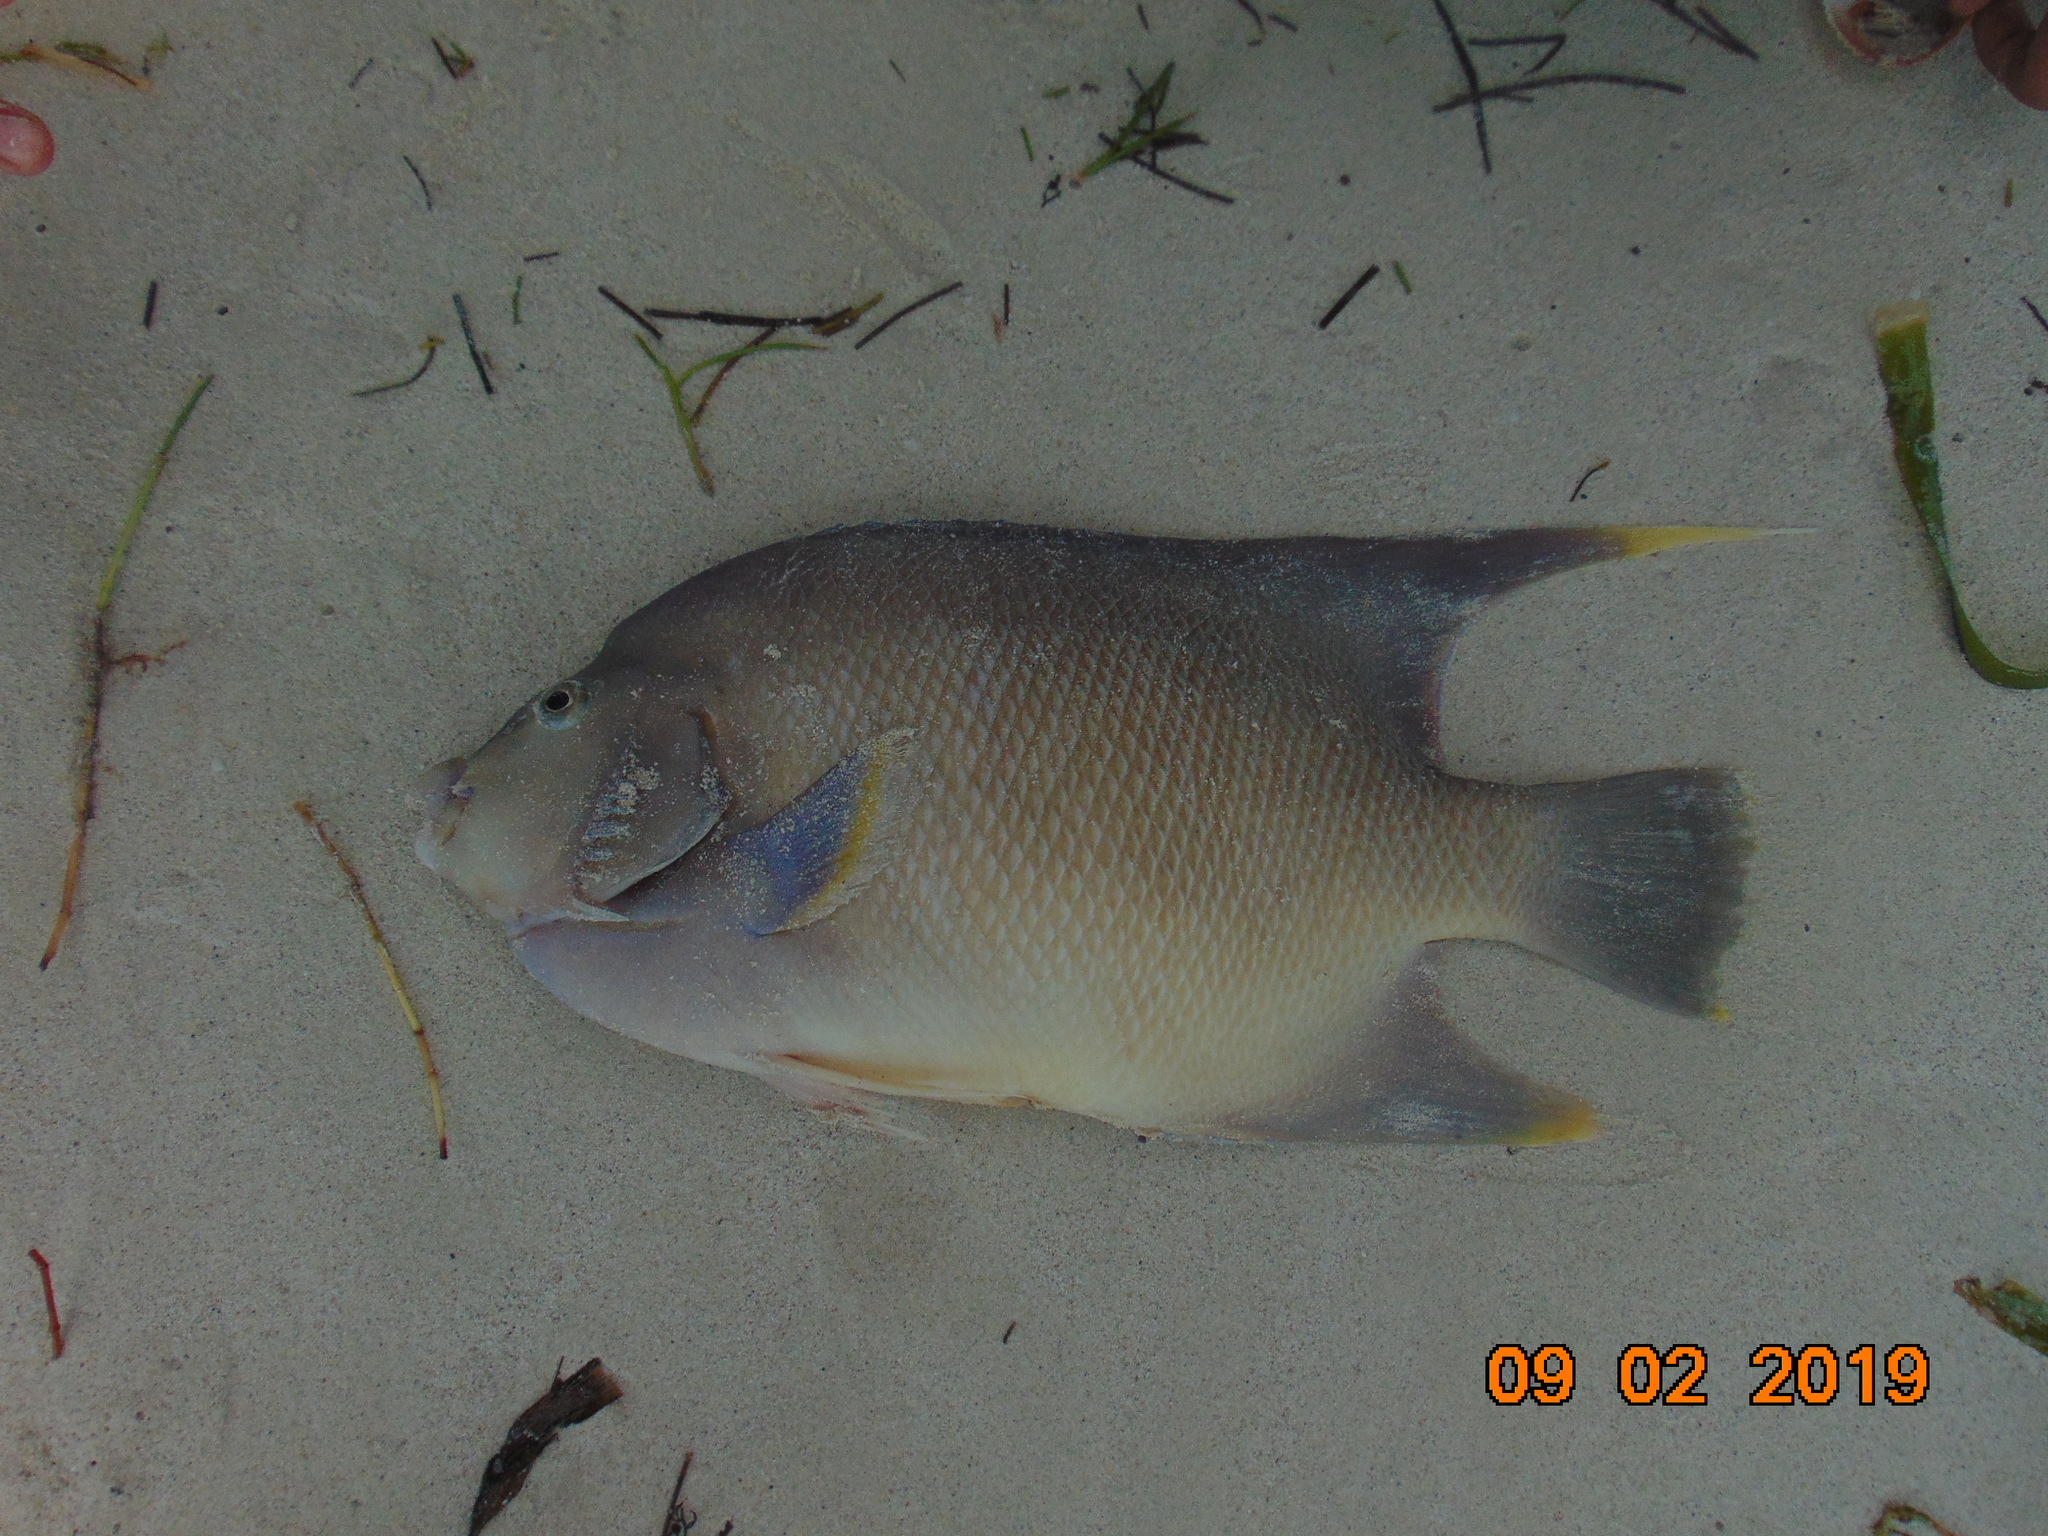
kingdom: Animalia
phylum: Chordata
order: Perciformes
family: Pomacanthidae
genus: Holacanthus
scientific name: Holacanthus bermudensis
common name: Blue angelfish
